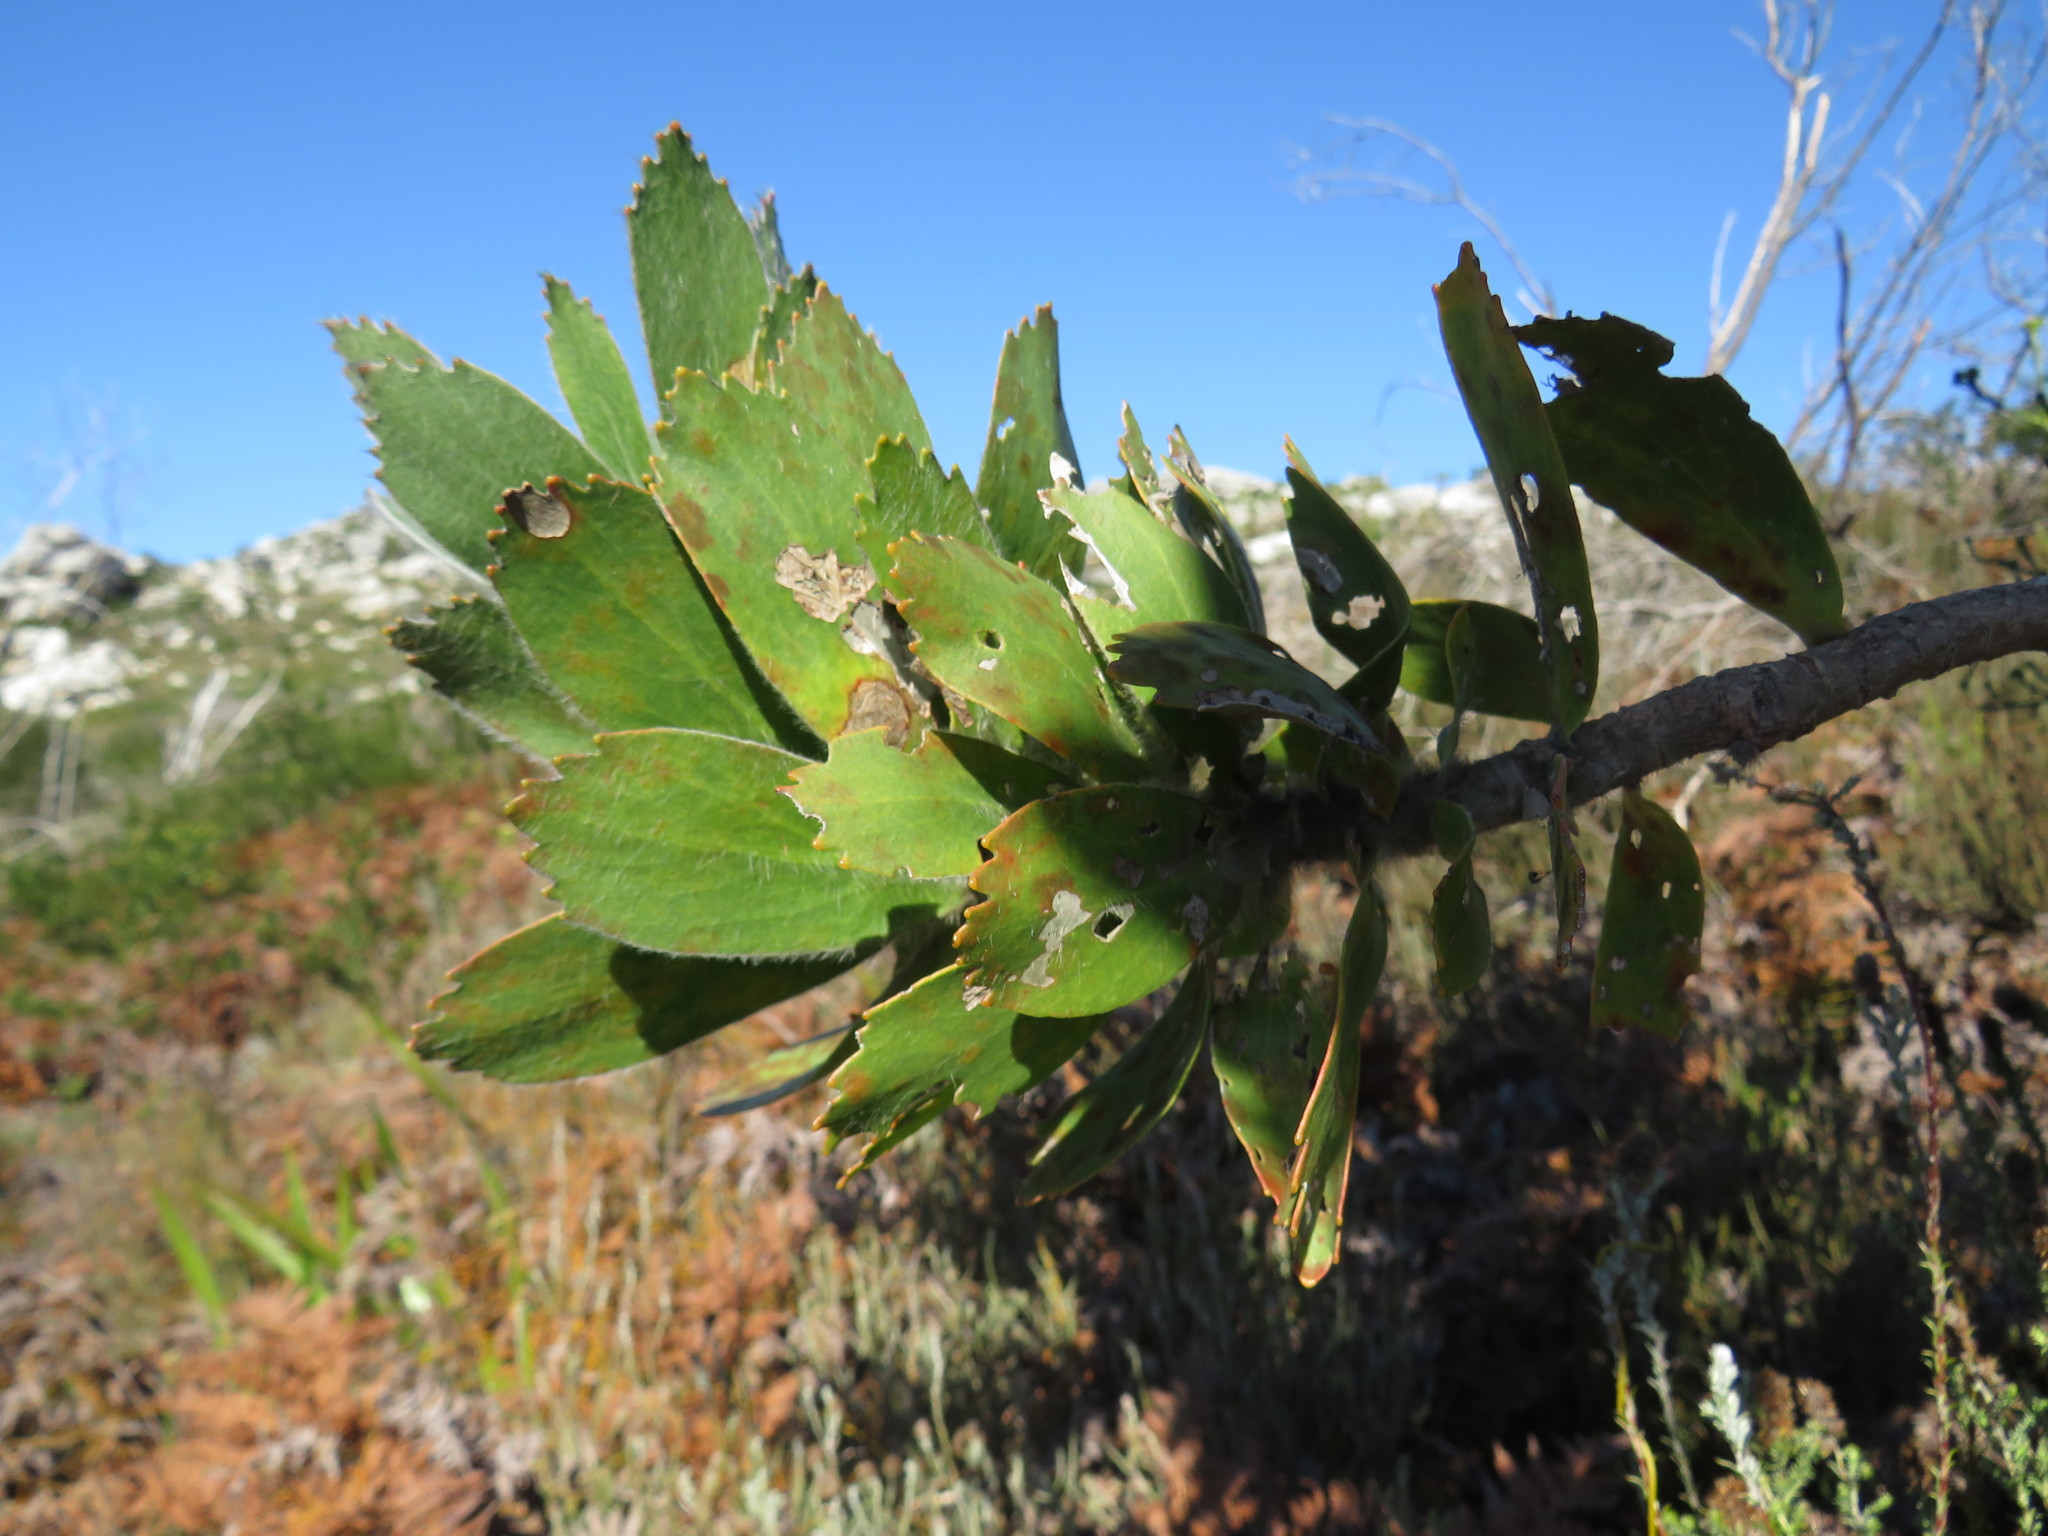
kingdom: Plantae
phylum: Tracheophyta
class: Magnoliopsida
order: Proteales
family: Proteaceae
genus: Leucospermum
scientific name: Leucospermum conocarpodendron
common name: Tree pincushion
